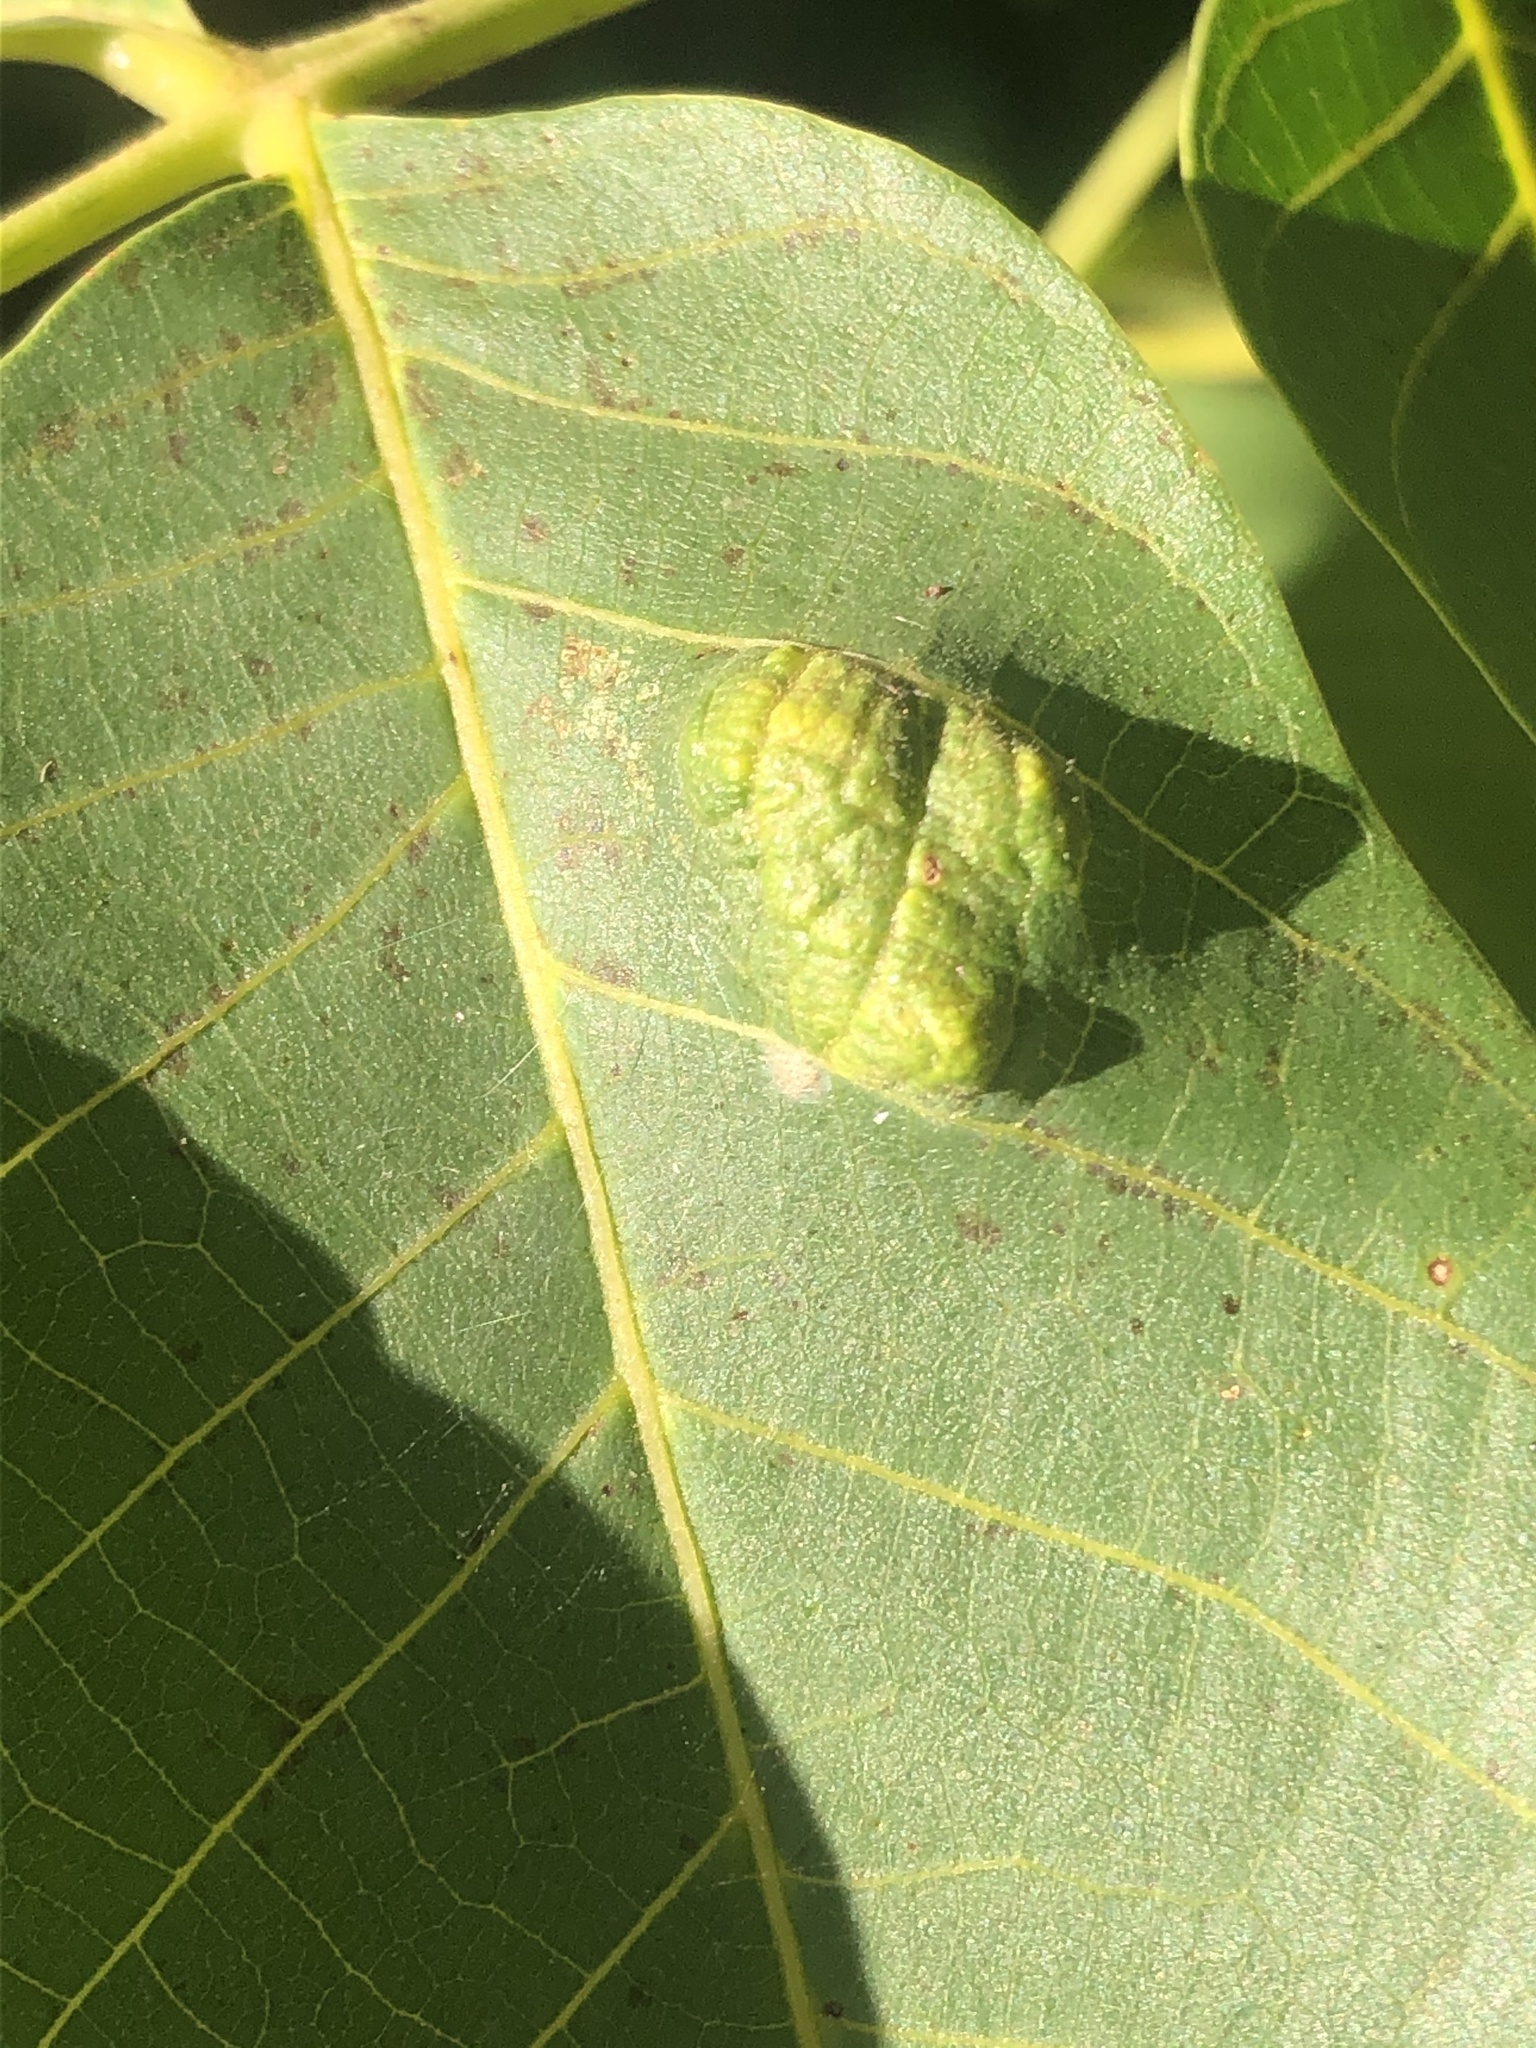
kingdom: Animalia
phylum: Arthropoda
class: Arachnida
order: Trombidiformes
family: Eriophyidae
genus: Aceria
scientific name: Aceria erinea
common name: Persian walnut erineum mite
